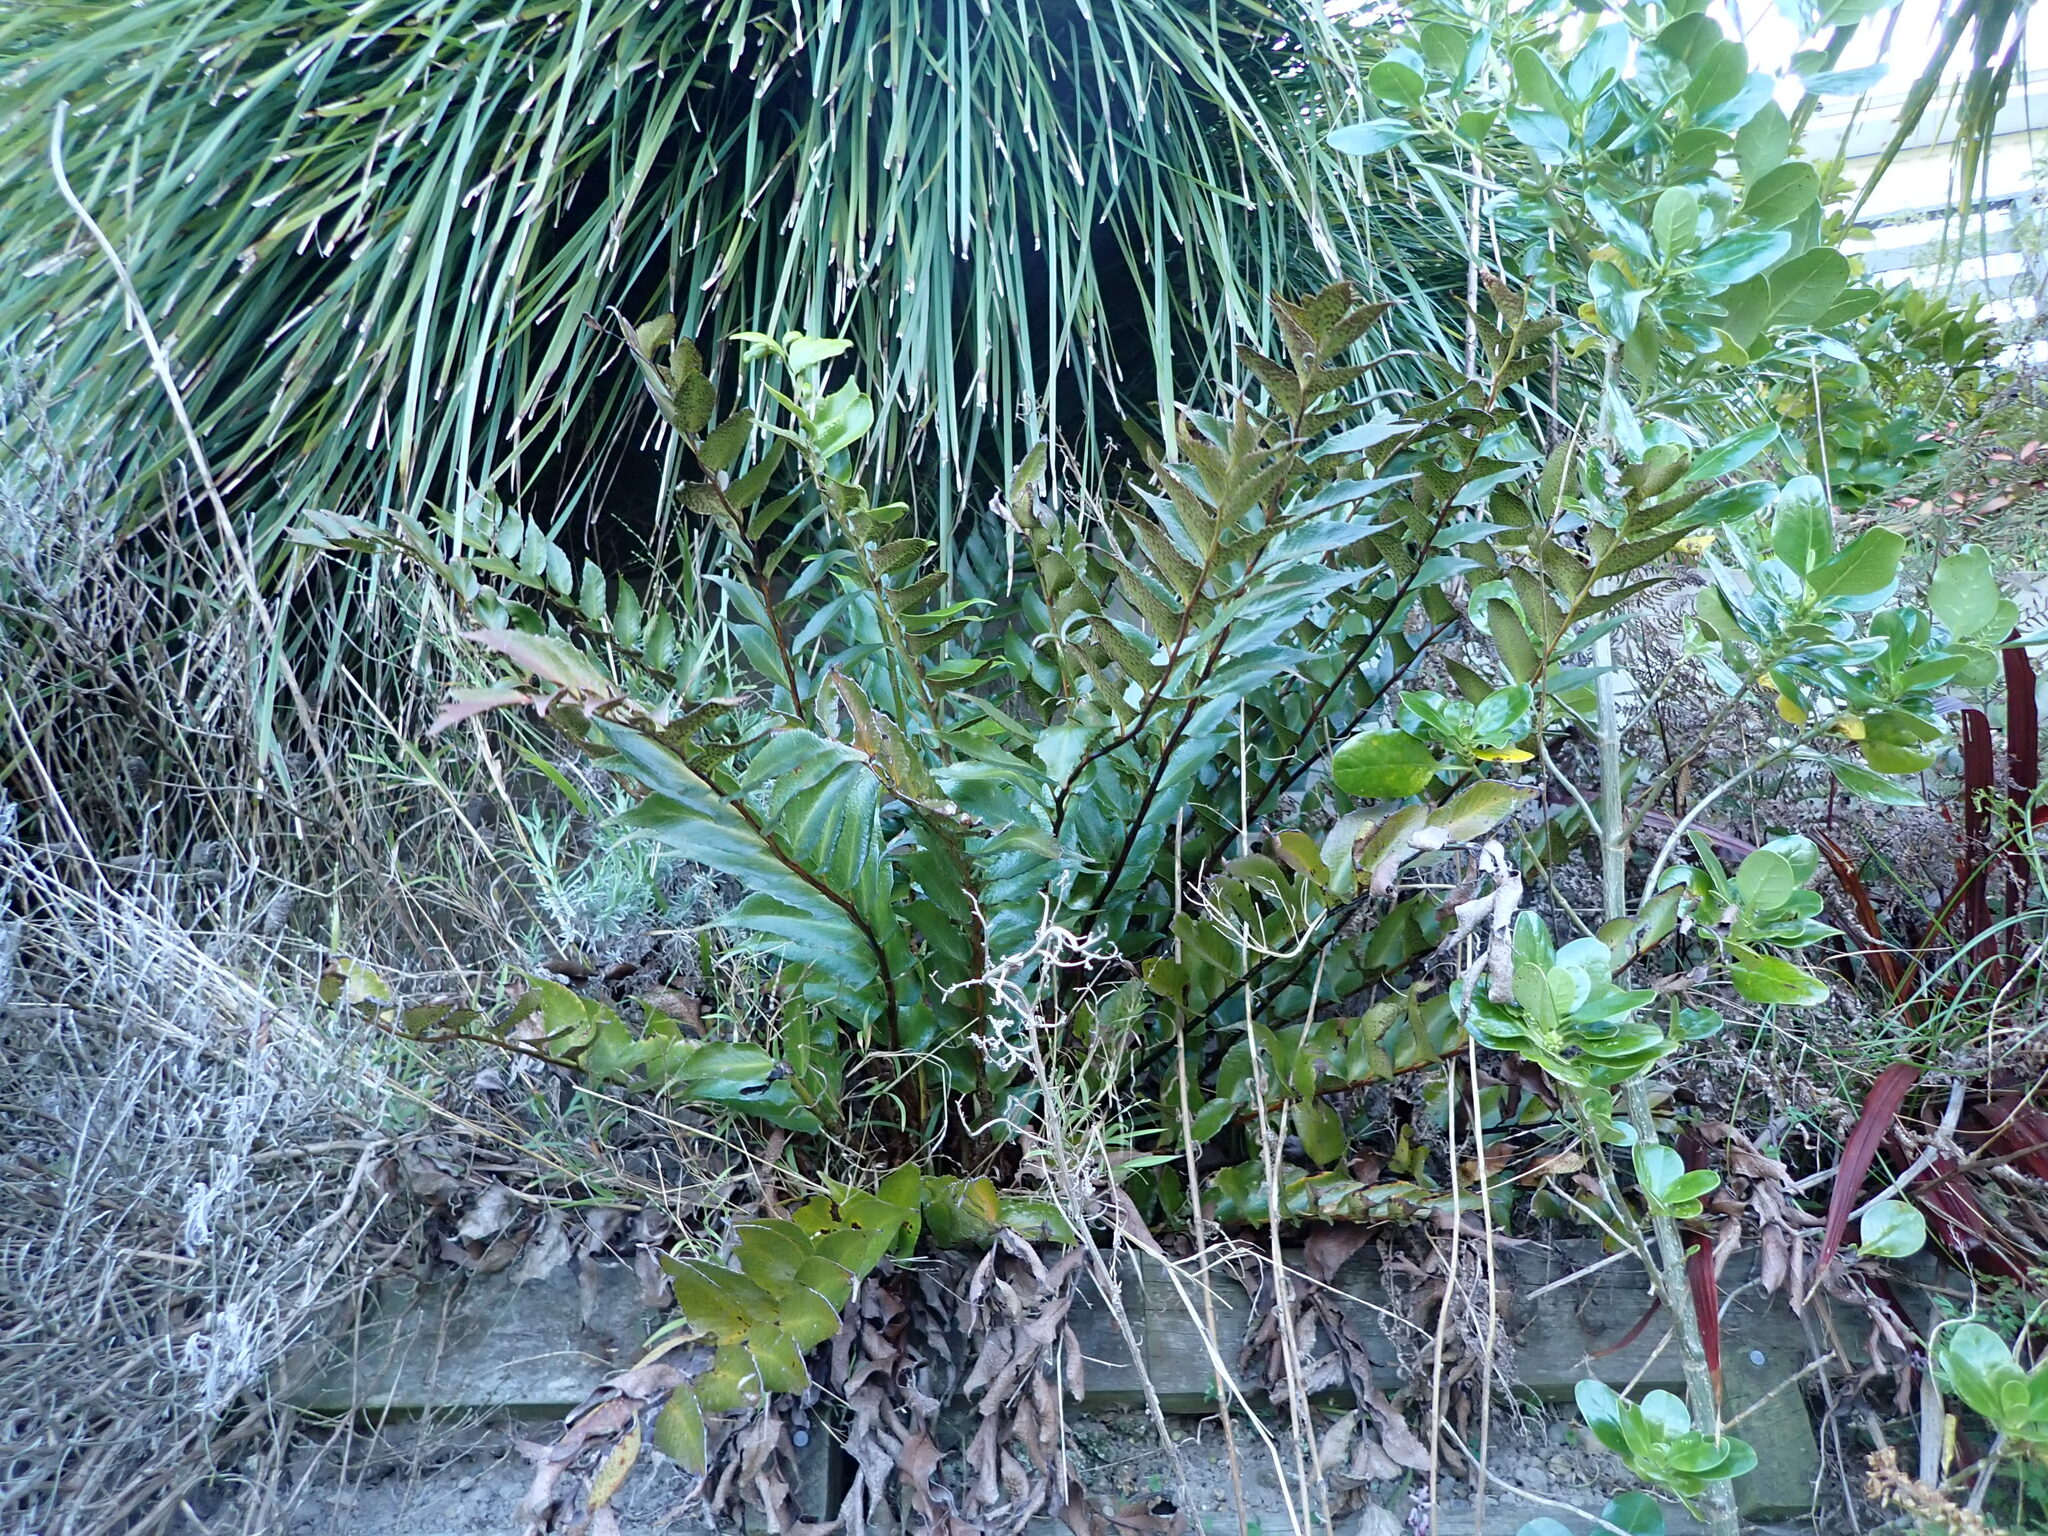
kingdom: Plantae
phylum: Tracheophyta
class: Polypodiopsida
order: Polypodiales
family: Dryopteridaceae
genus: Cyrtomium
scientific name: Cyrtomium falcatum
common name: House holly-fern
